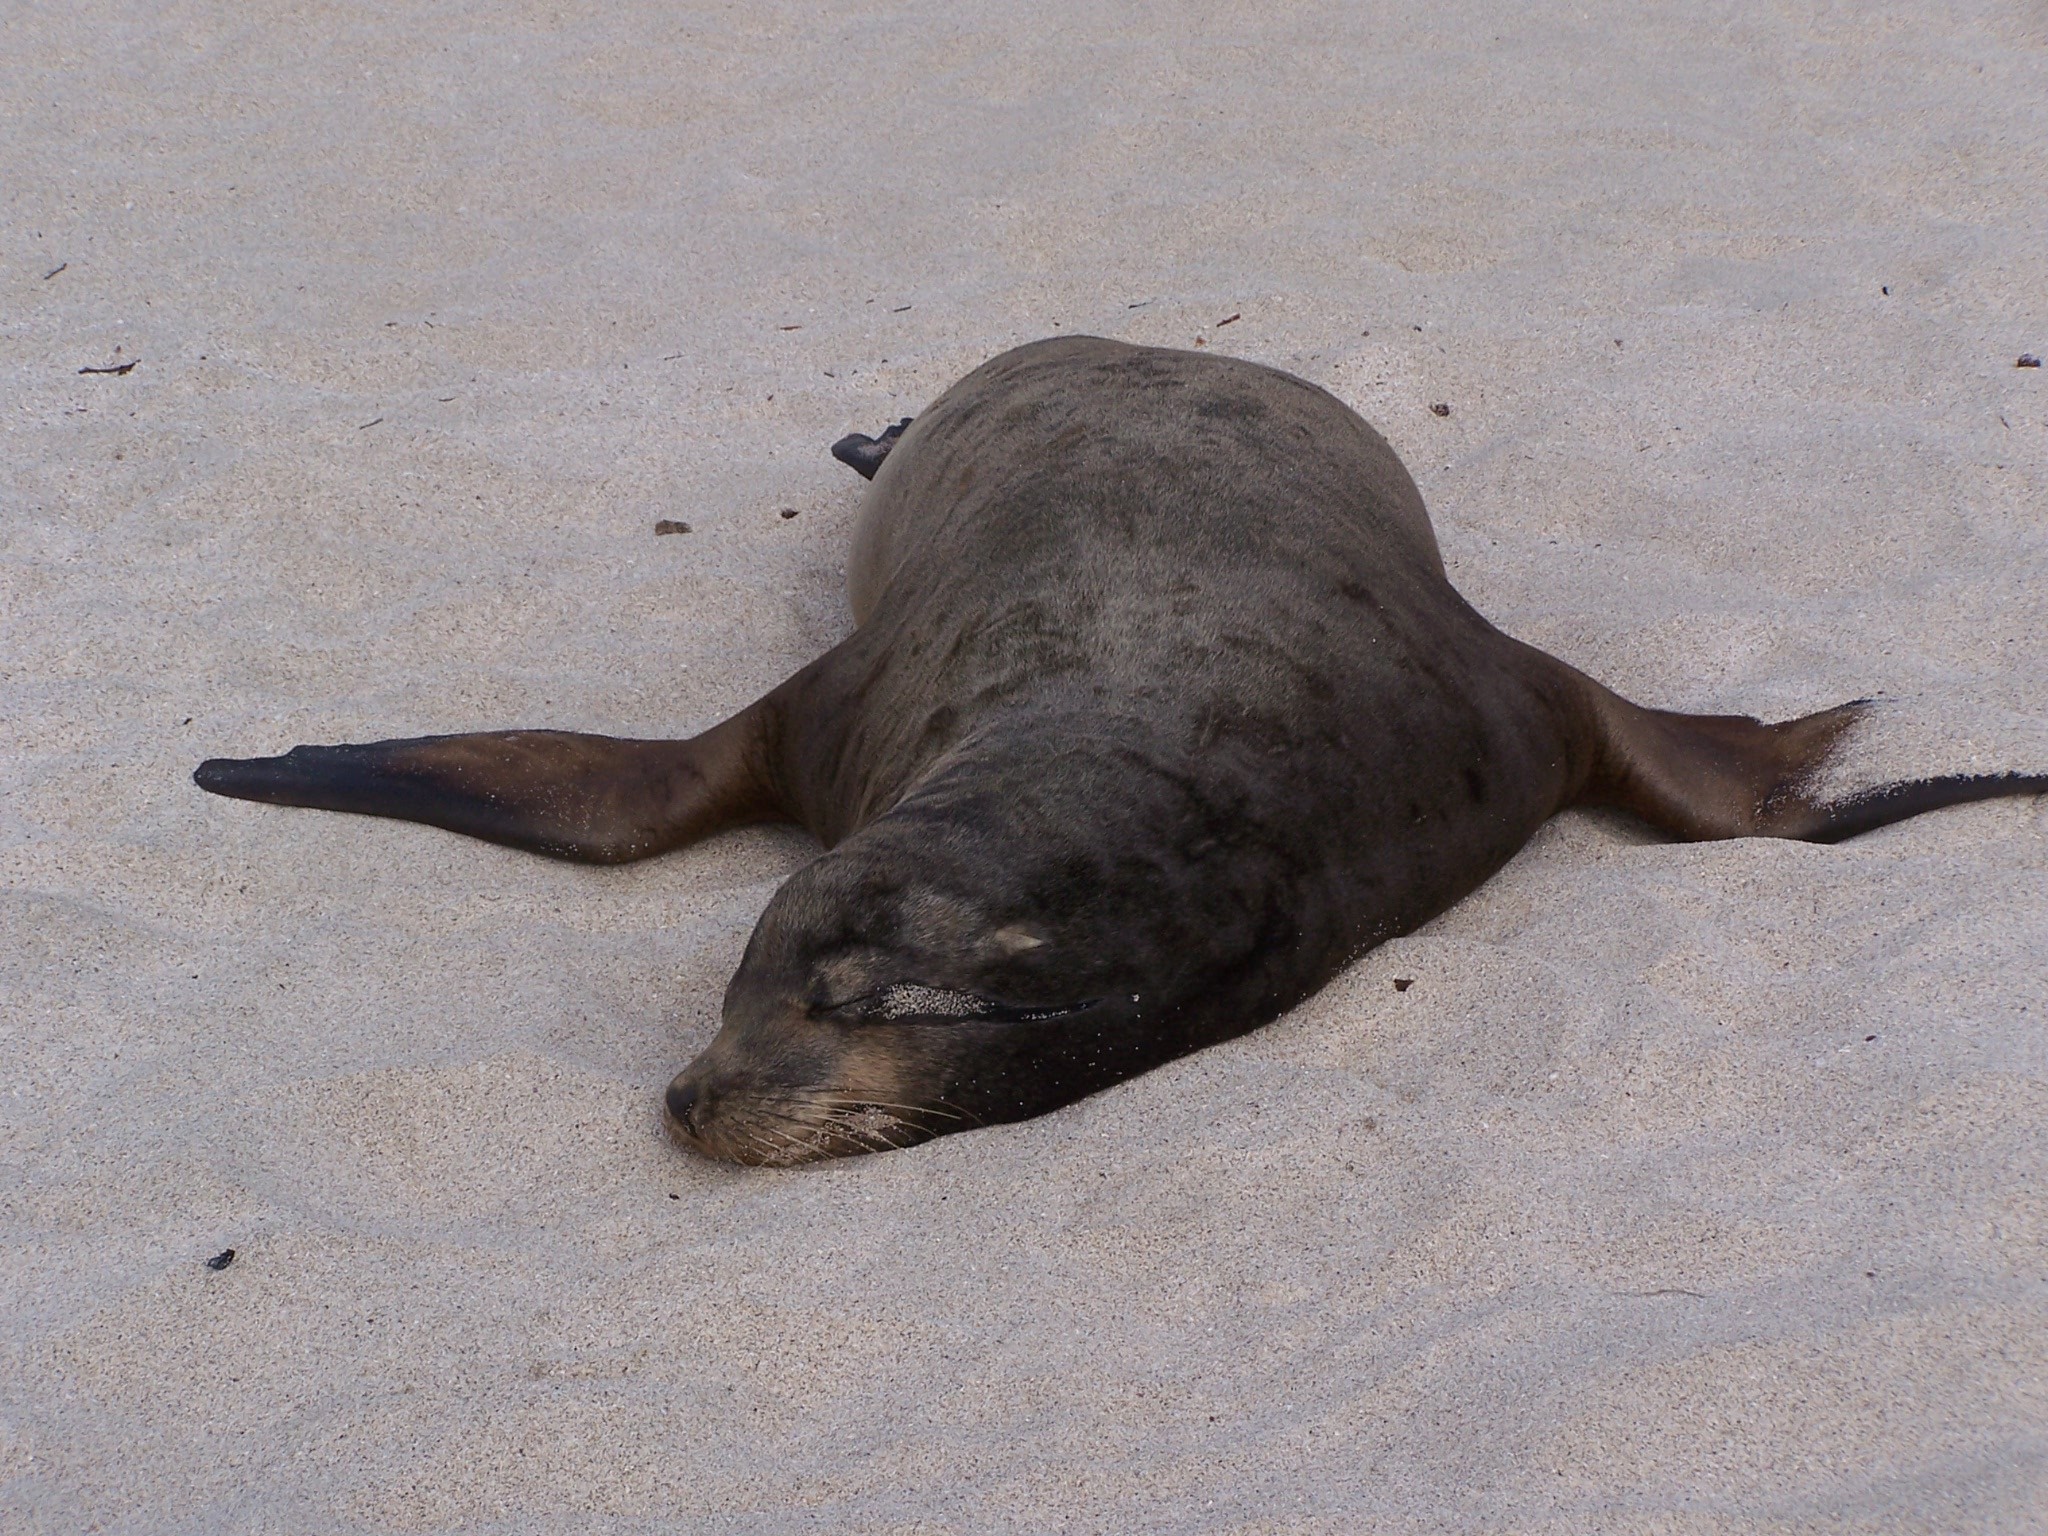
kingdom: Animalia
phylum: Chordata
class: Mammalia
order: Carnivora
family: Otariidae
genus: Zalophus
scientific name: Zalophus wollebaeki
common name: Galapagos sea lion
